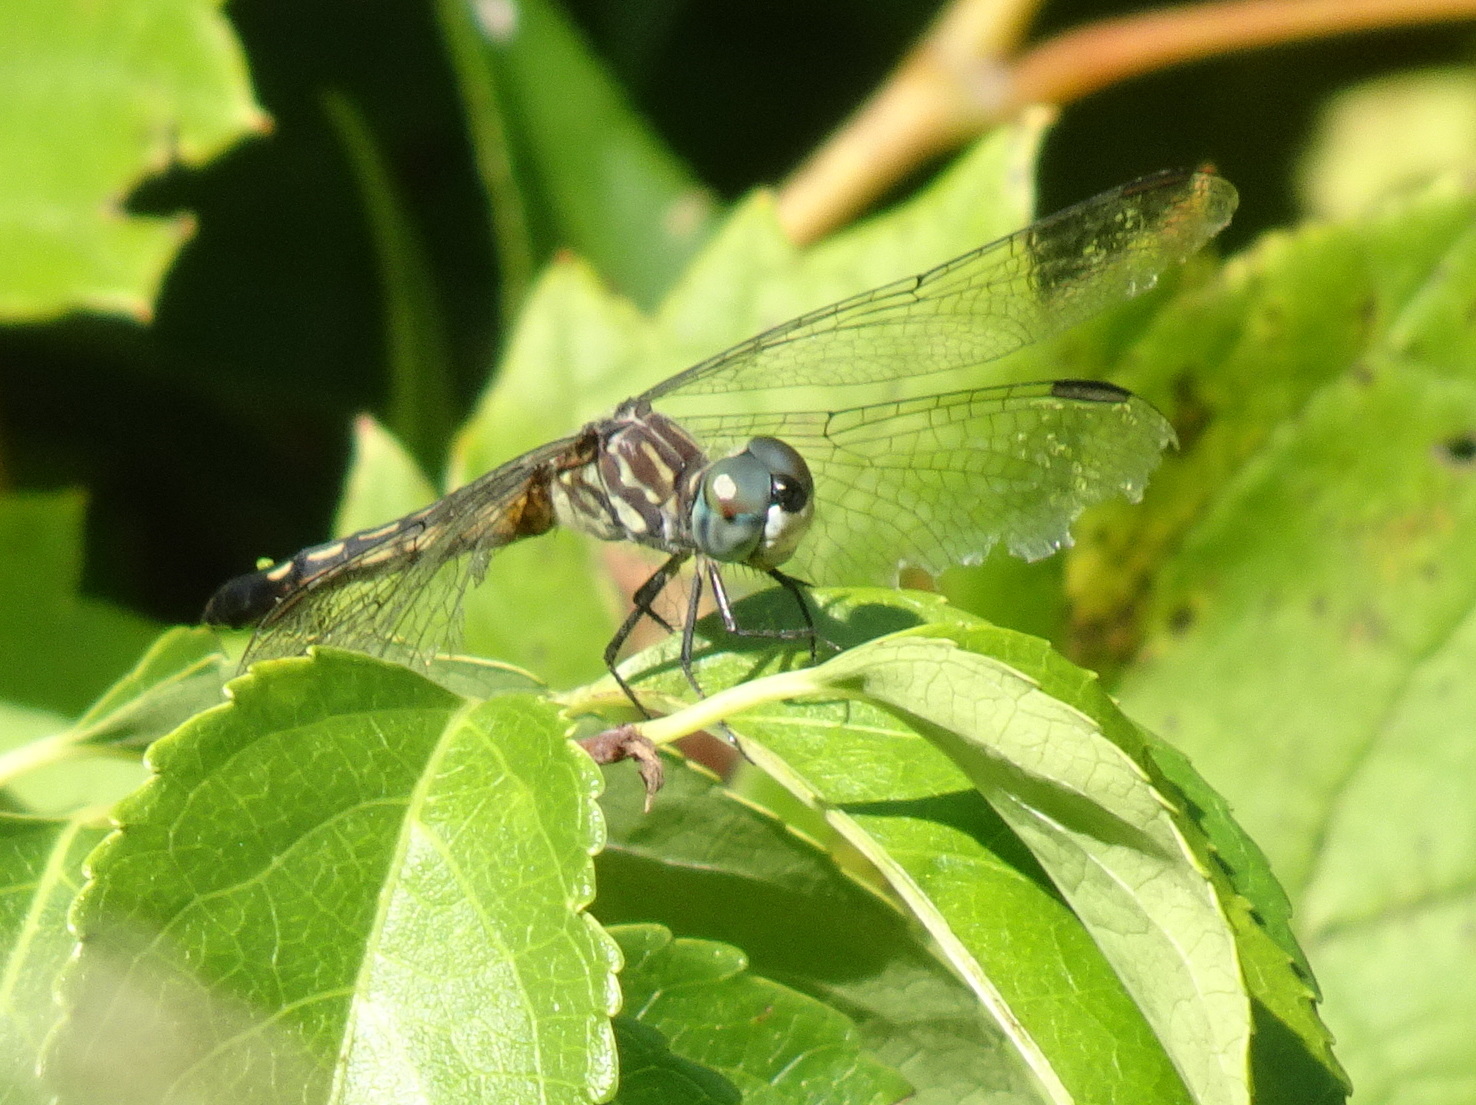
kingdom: Animalia
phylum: Arthropoda
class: Insecta
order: Odonata
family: Libellulidae
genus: Pachydiplax
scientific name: Pachydiplax longipennis
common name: Blue dasher
